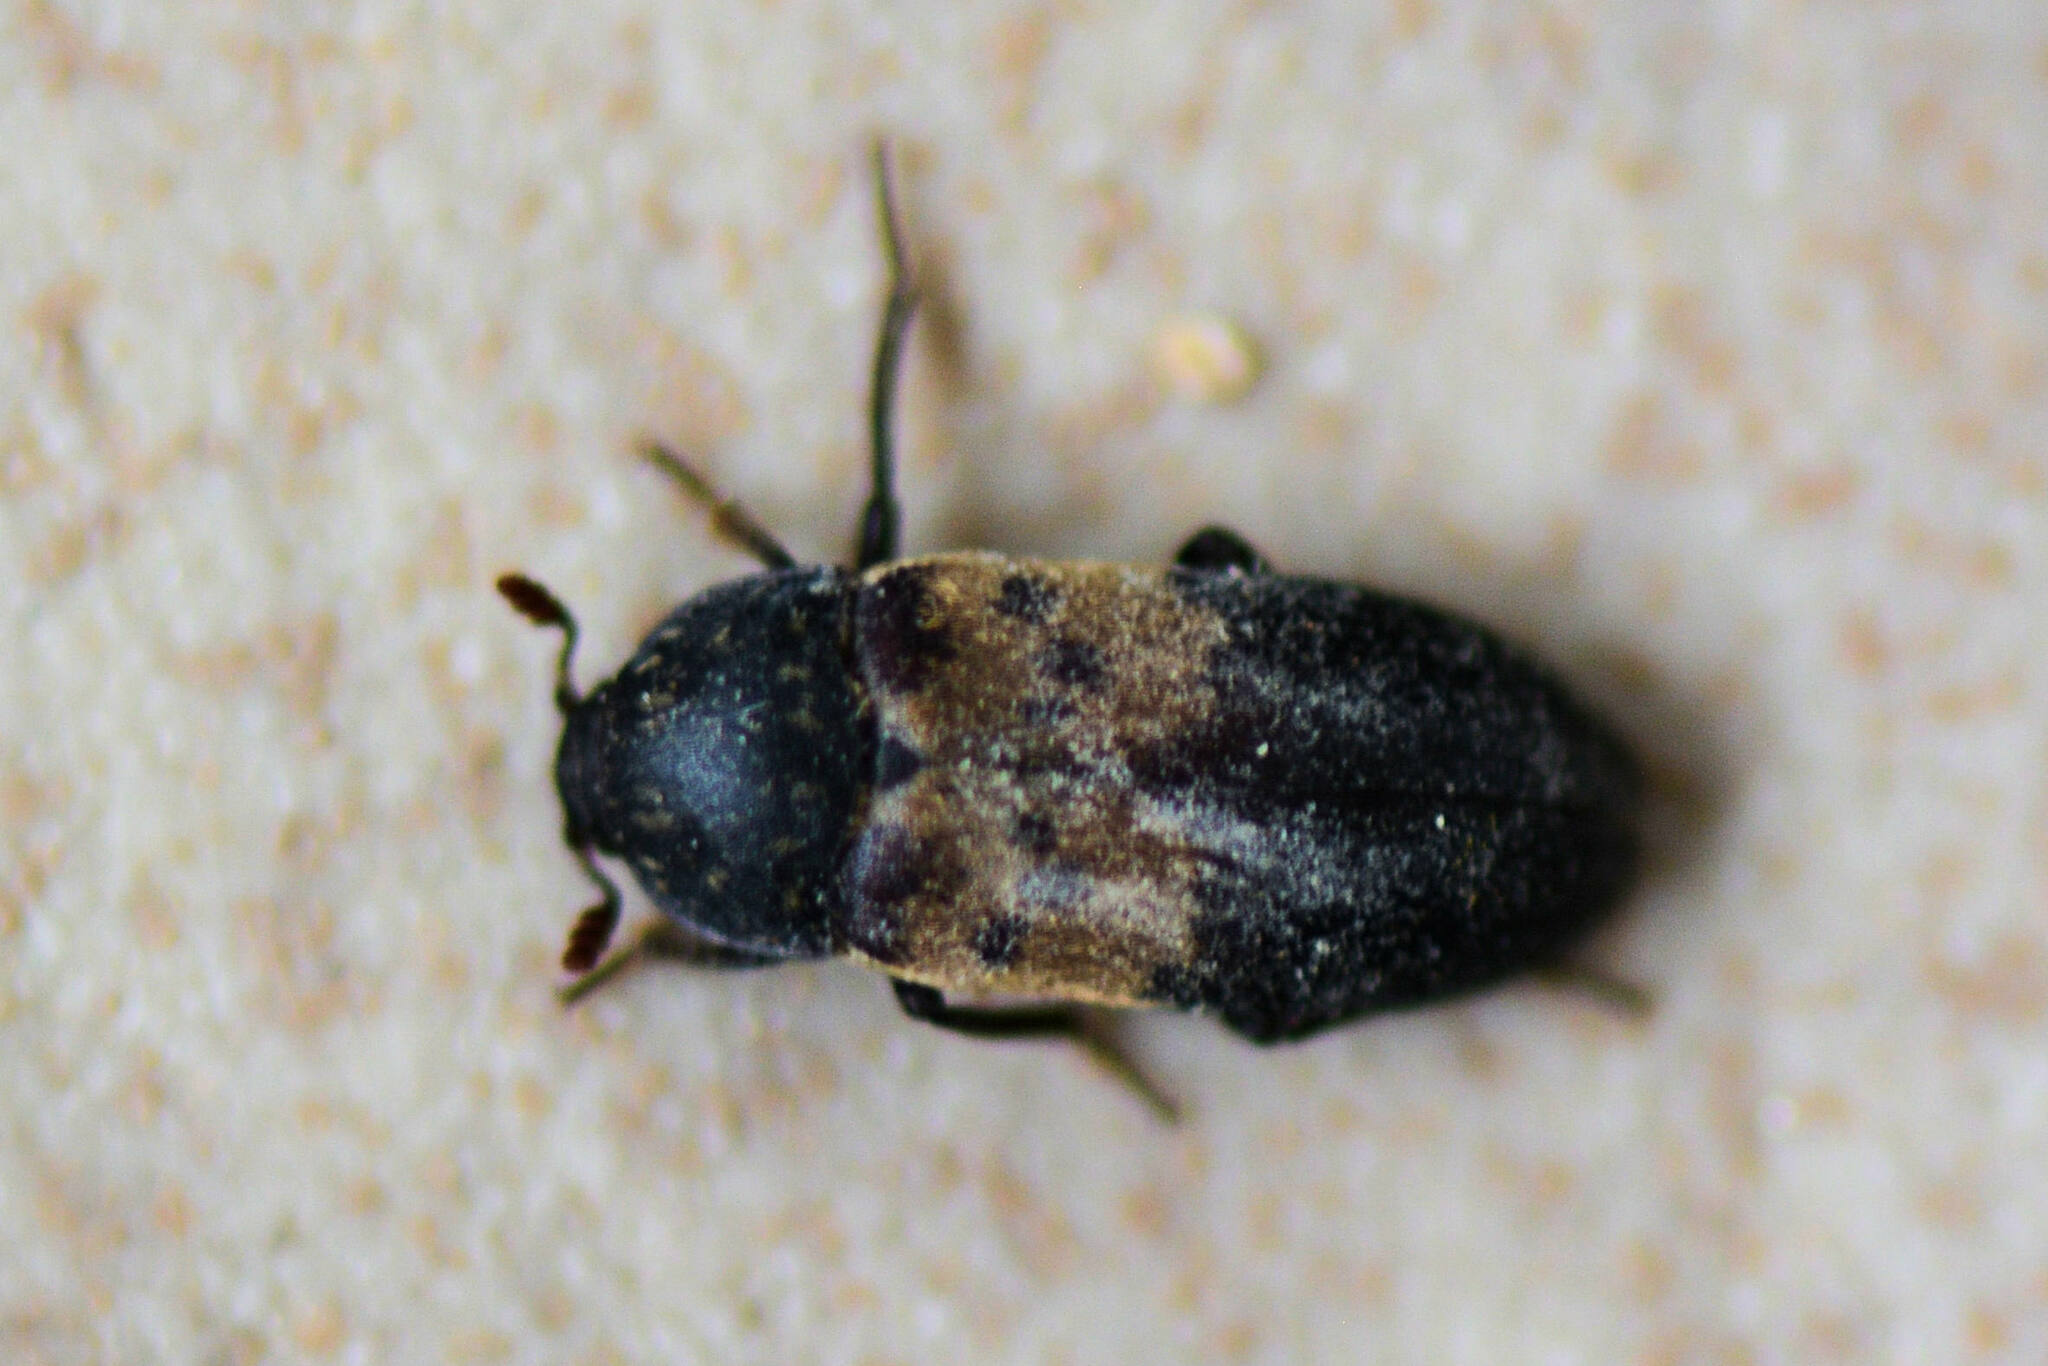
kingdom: Animalia
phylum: Arthropoda
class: Insecta
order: Coleoptera
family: Dermestidae
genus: Dermestes
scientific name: Dermestes lardarius
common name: Larder beetle
